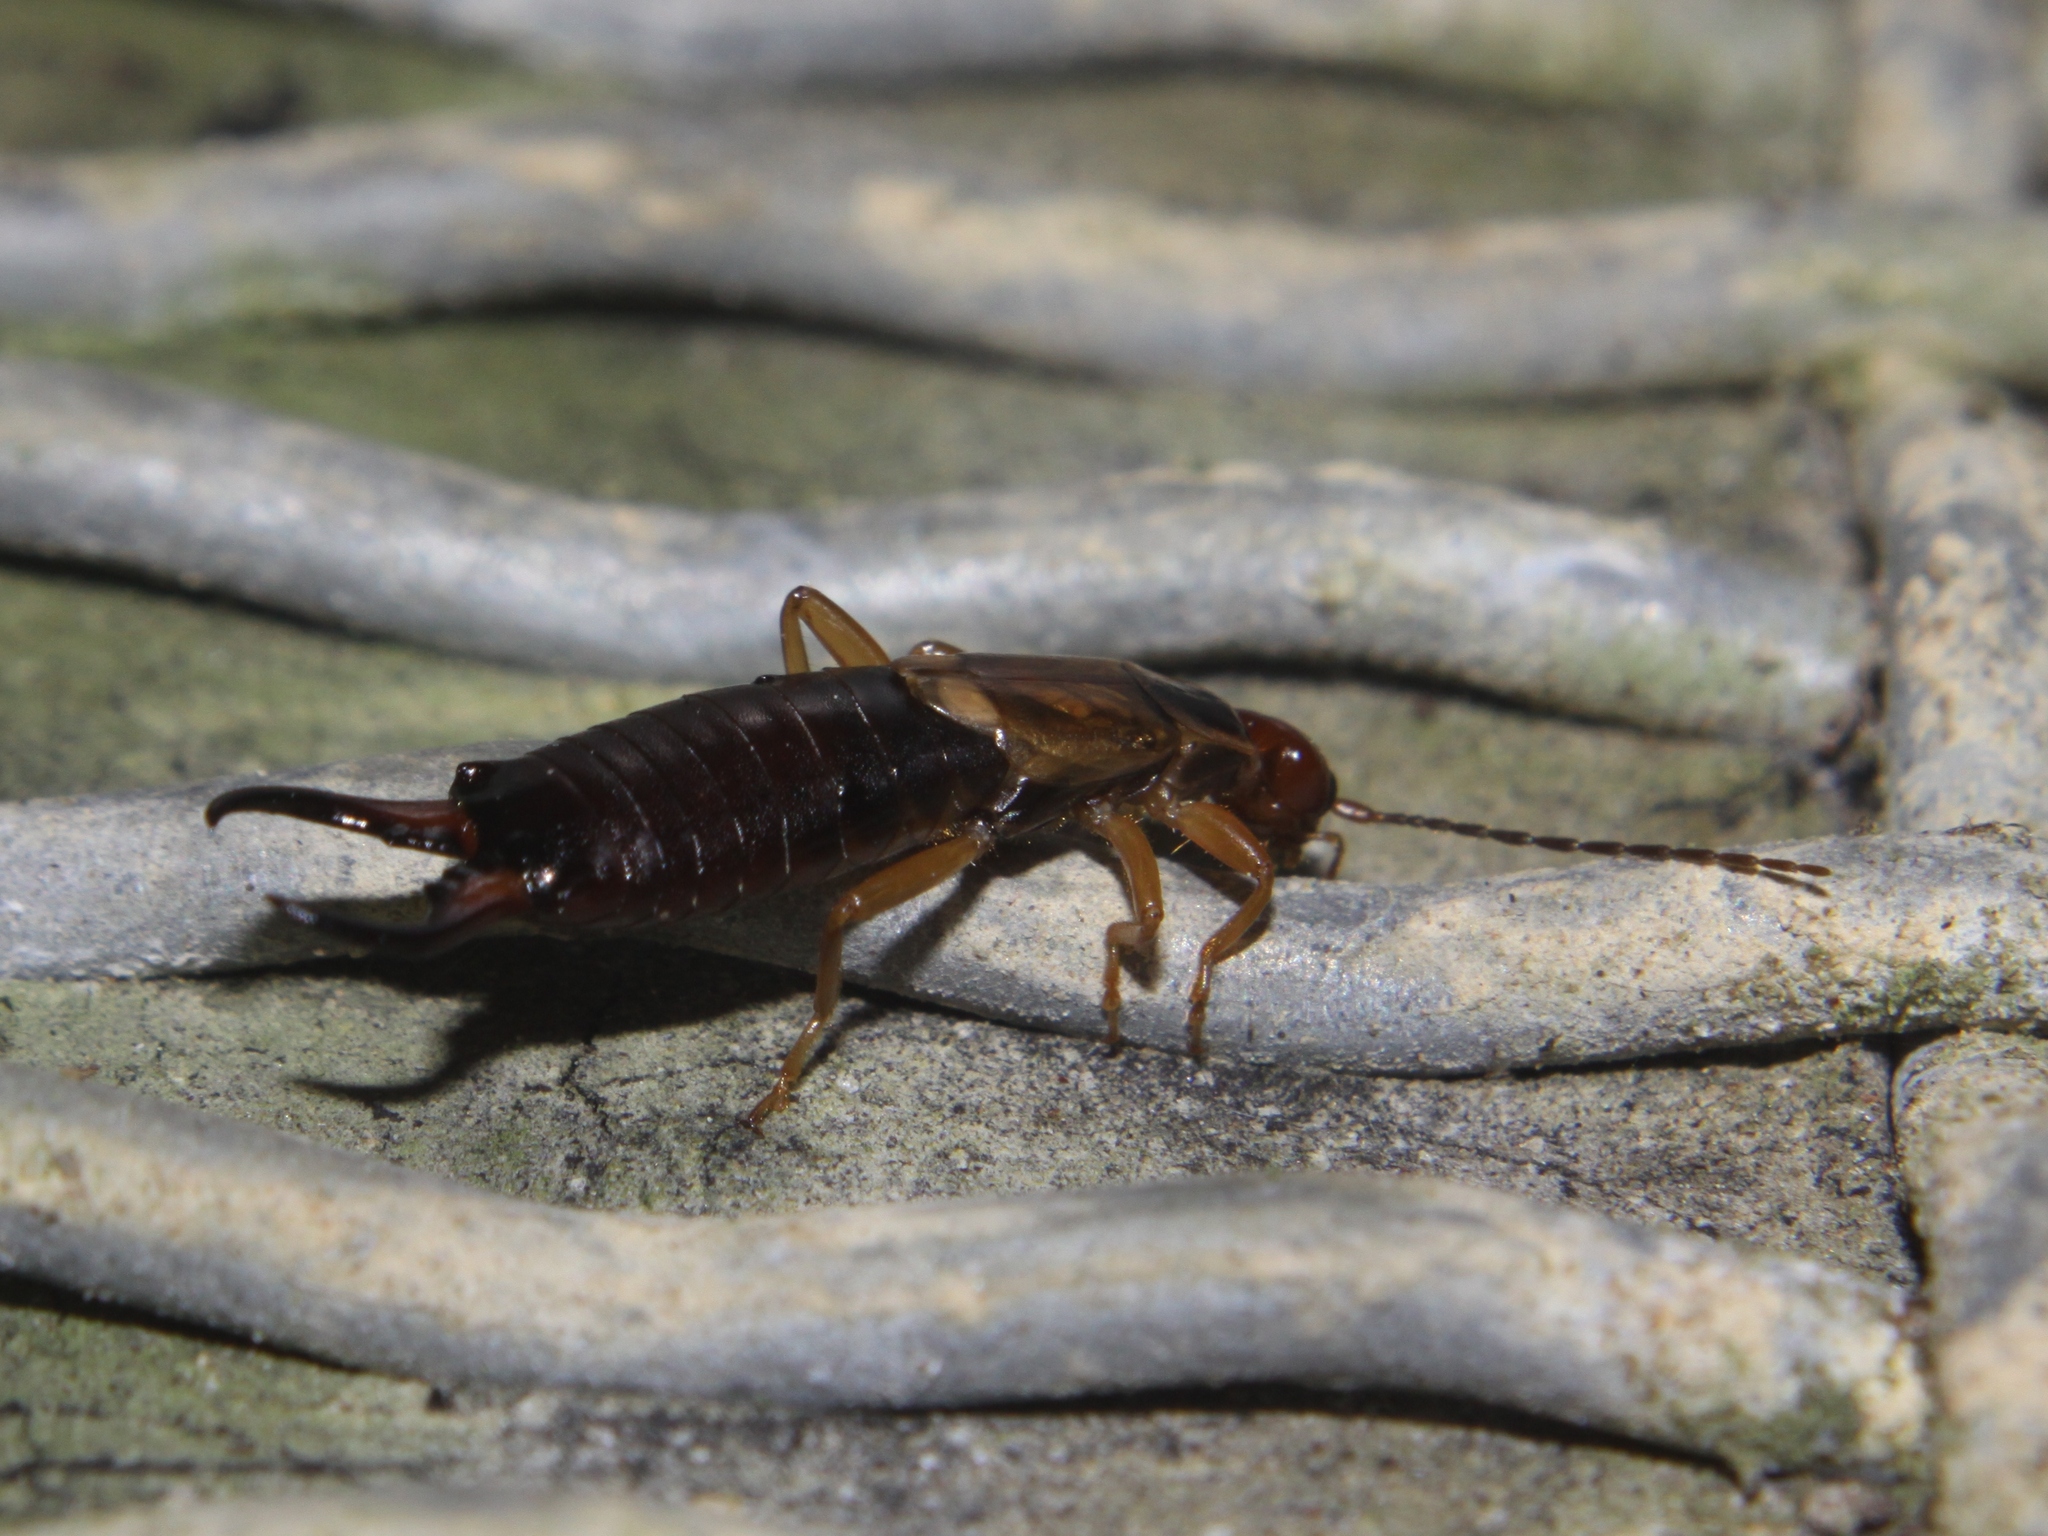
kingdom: Animalia
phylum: Arthropoda
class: Insecta
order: Dermaptera
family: Forficulidae
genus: Forficula
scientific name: Forficula
